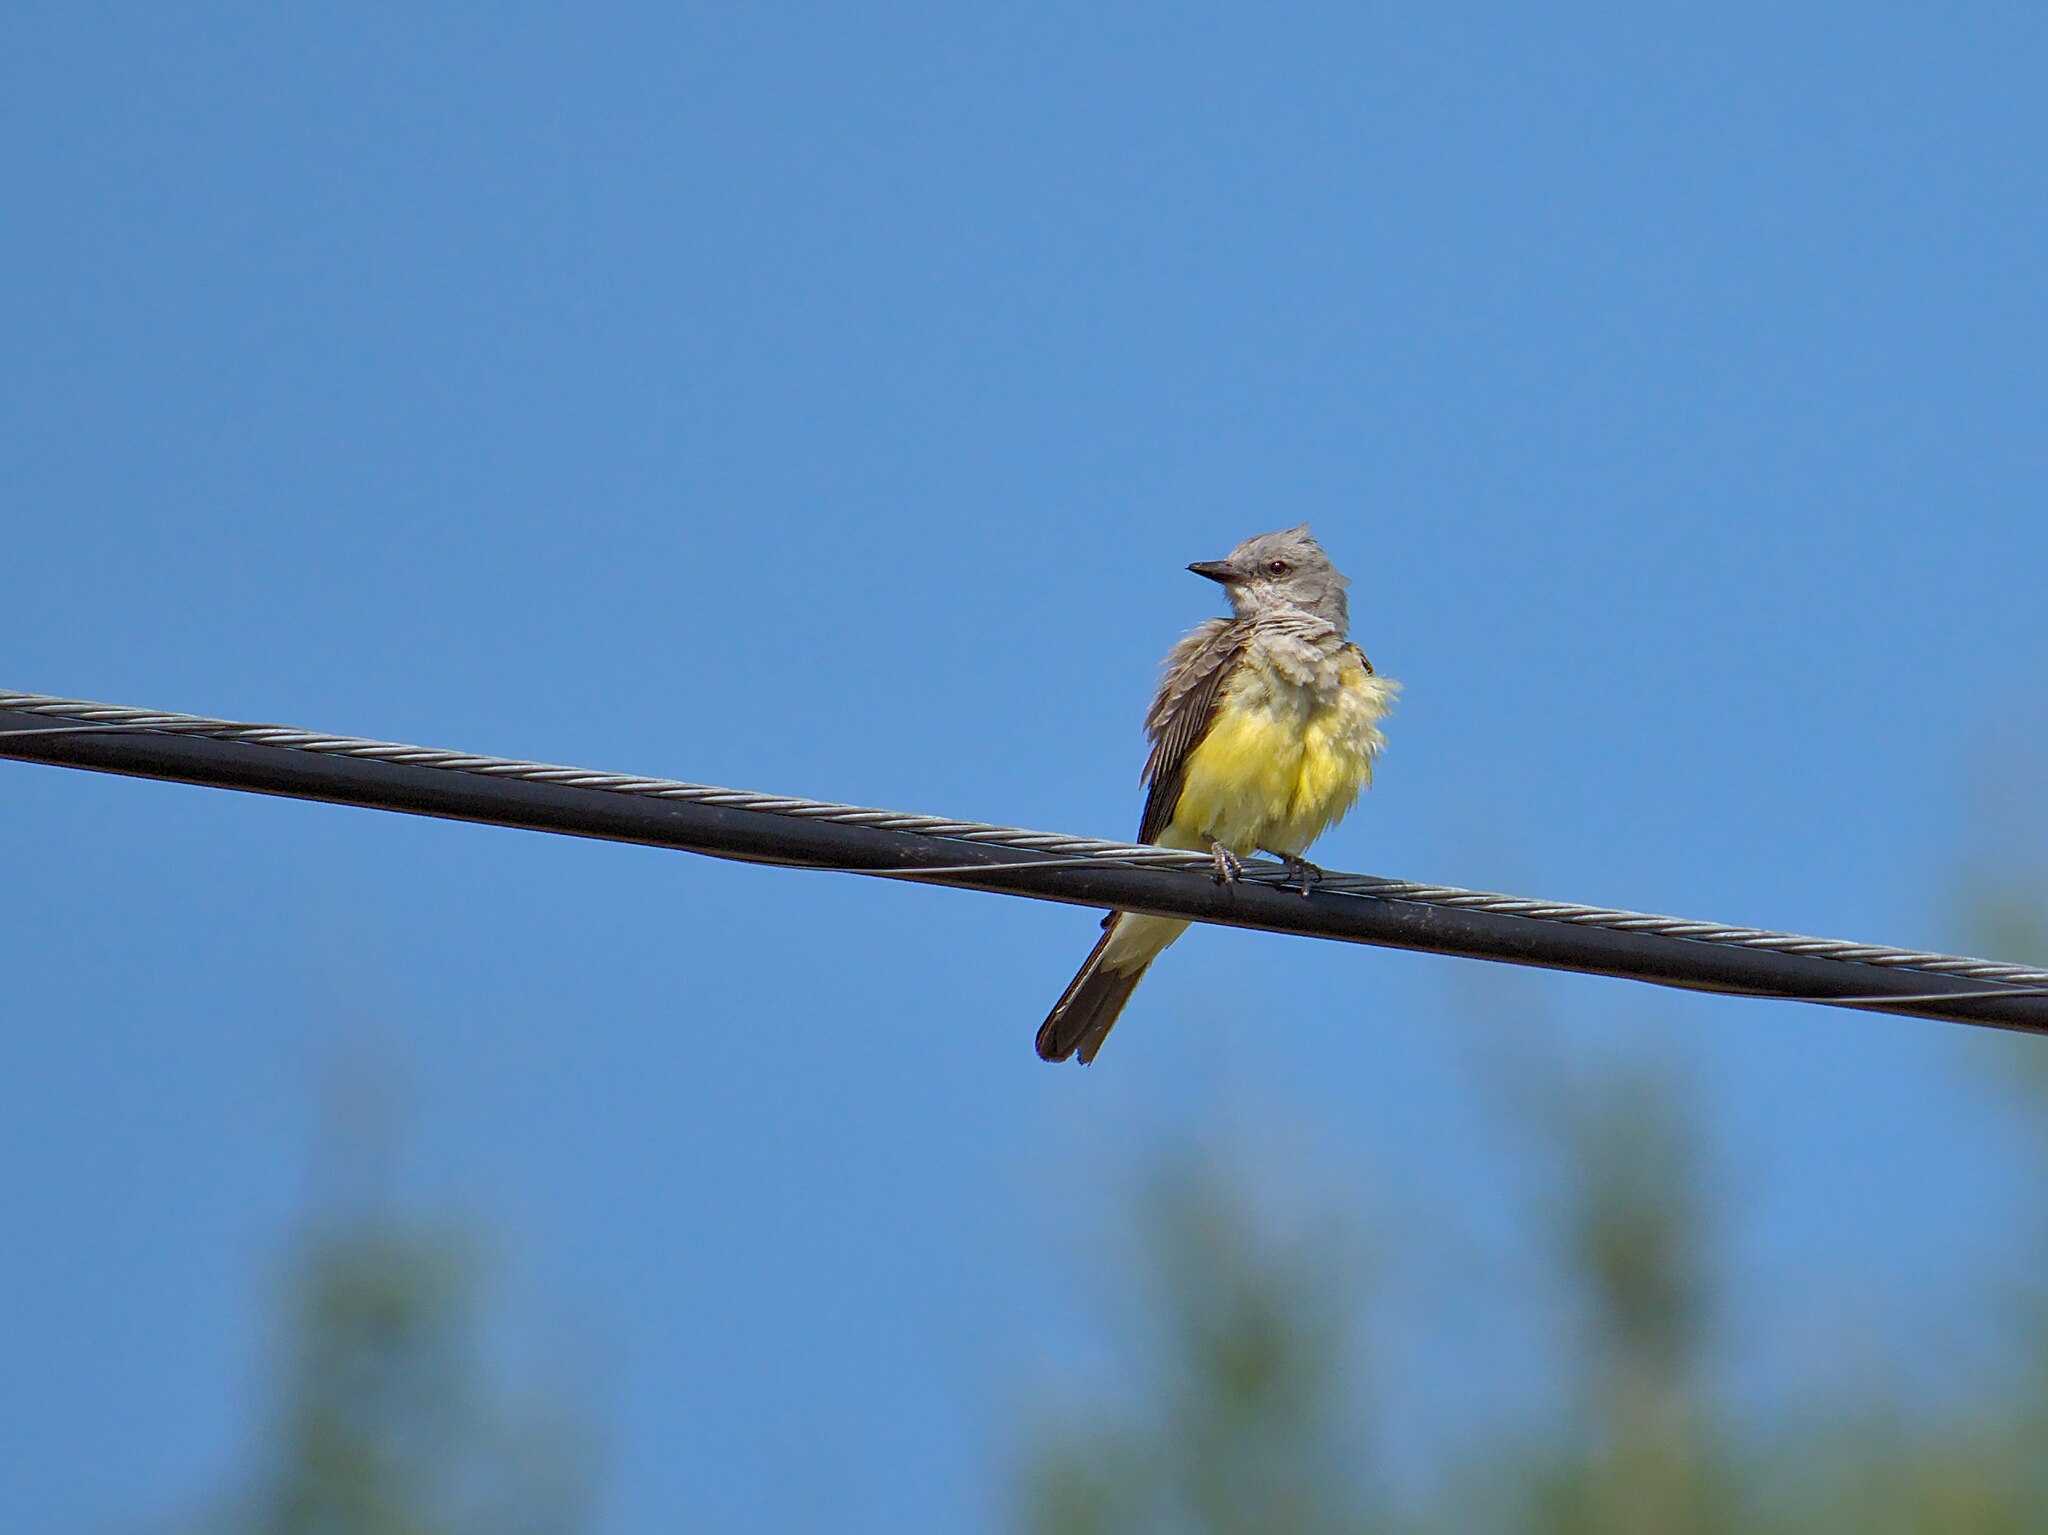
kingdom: Animalia
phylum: Chordata
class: Aves
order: Passeriformes
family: Tyrannidae
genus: Tyrannus
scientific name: Tyrannus verticalis
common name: Western kingbird
